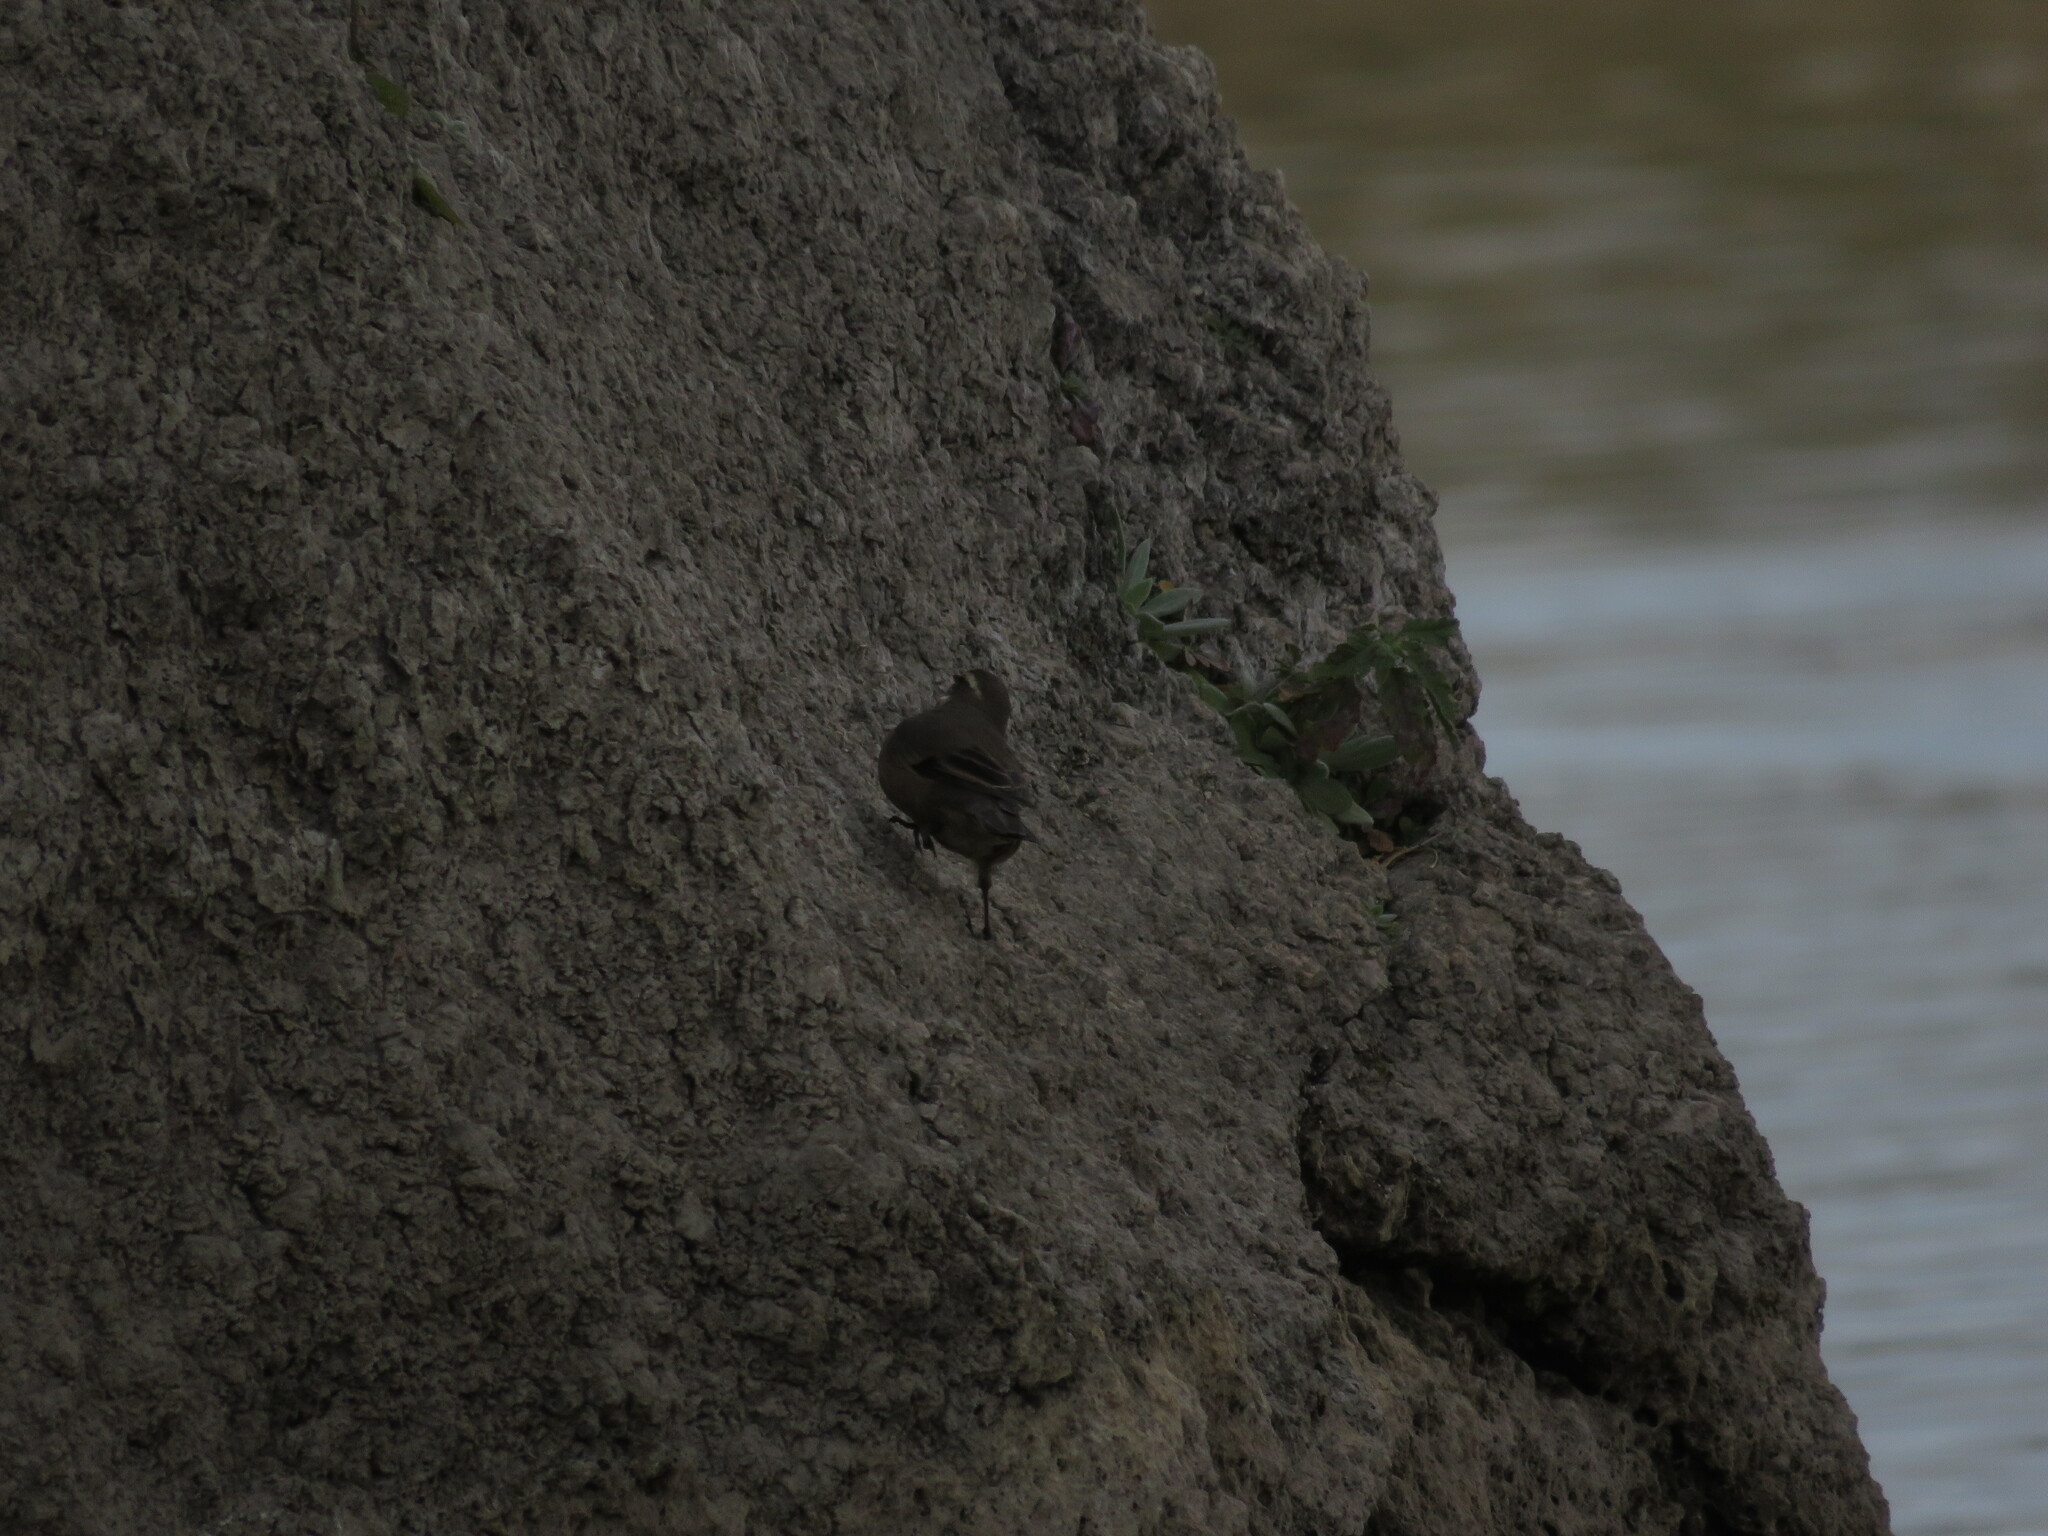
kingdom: Animalia
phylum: Chordata
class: Aves
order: Passeriformes
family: Furnariidae
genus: Cinclodes
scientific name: Cinclodes fuscus
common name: Buff-winged cinclodes
